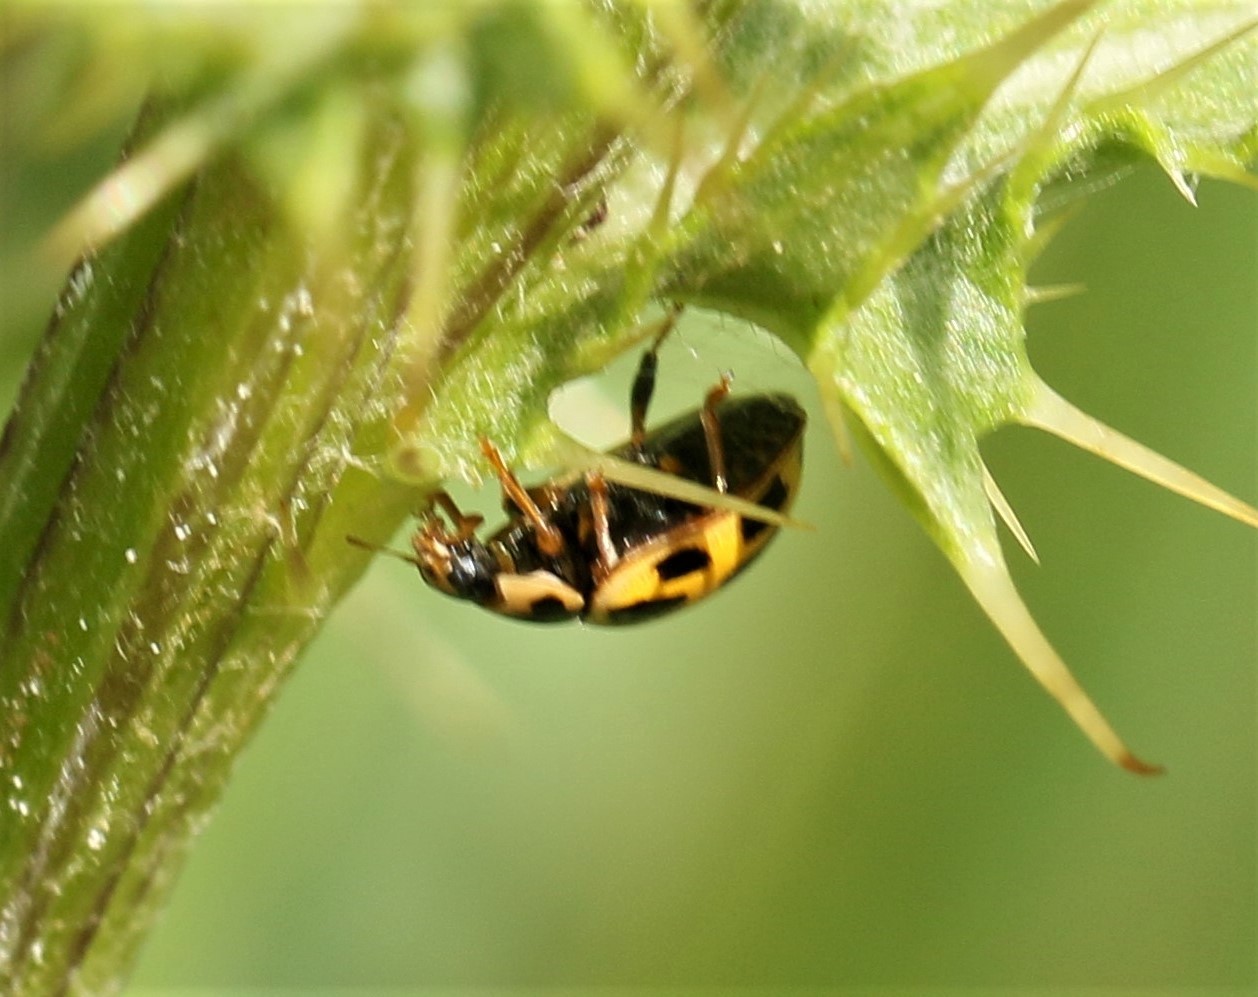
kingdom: Animalia
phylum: Arthropoda
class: Insecta
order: Coleoptera
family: Coccinellidae
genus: Propylaea
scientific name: Propylaea quatuordecimpunctata
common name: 14-spotted ladybird beetle
